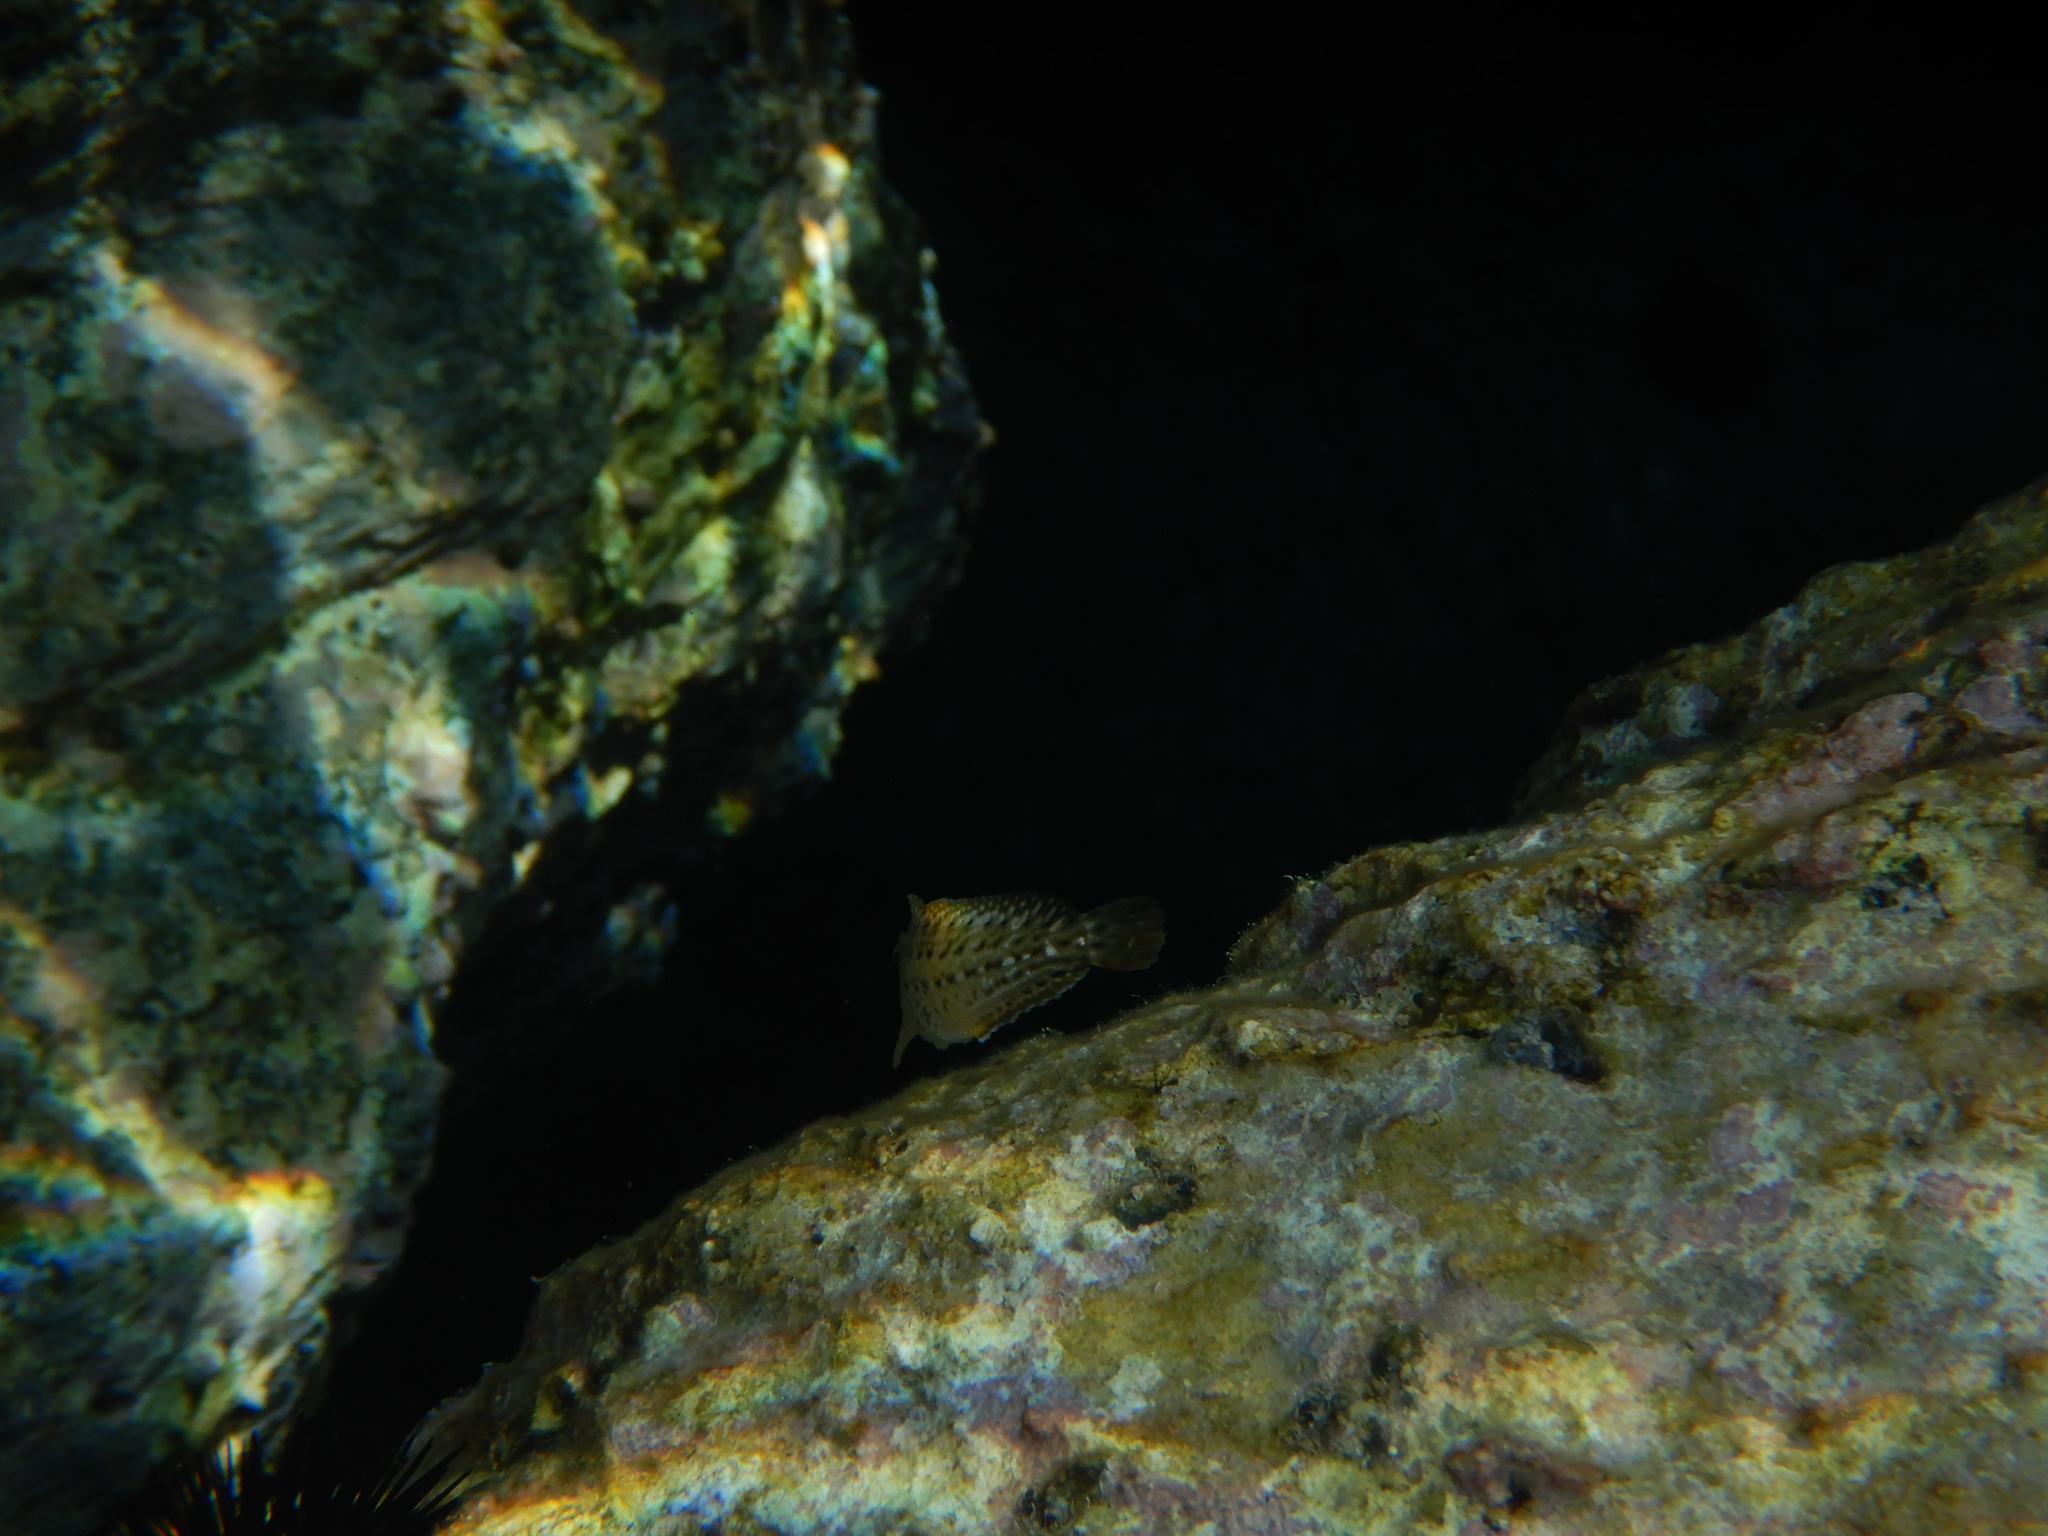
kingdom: Animalia
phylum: Chordata
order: Perciformes
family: Blenniidae
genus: Parablennius
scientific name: Parablennius sanguinolentus
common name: Black sea blenny
